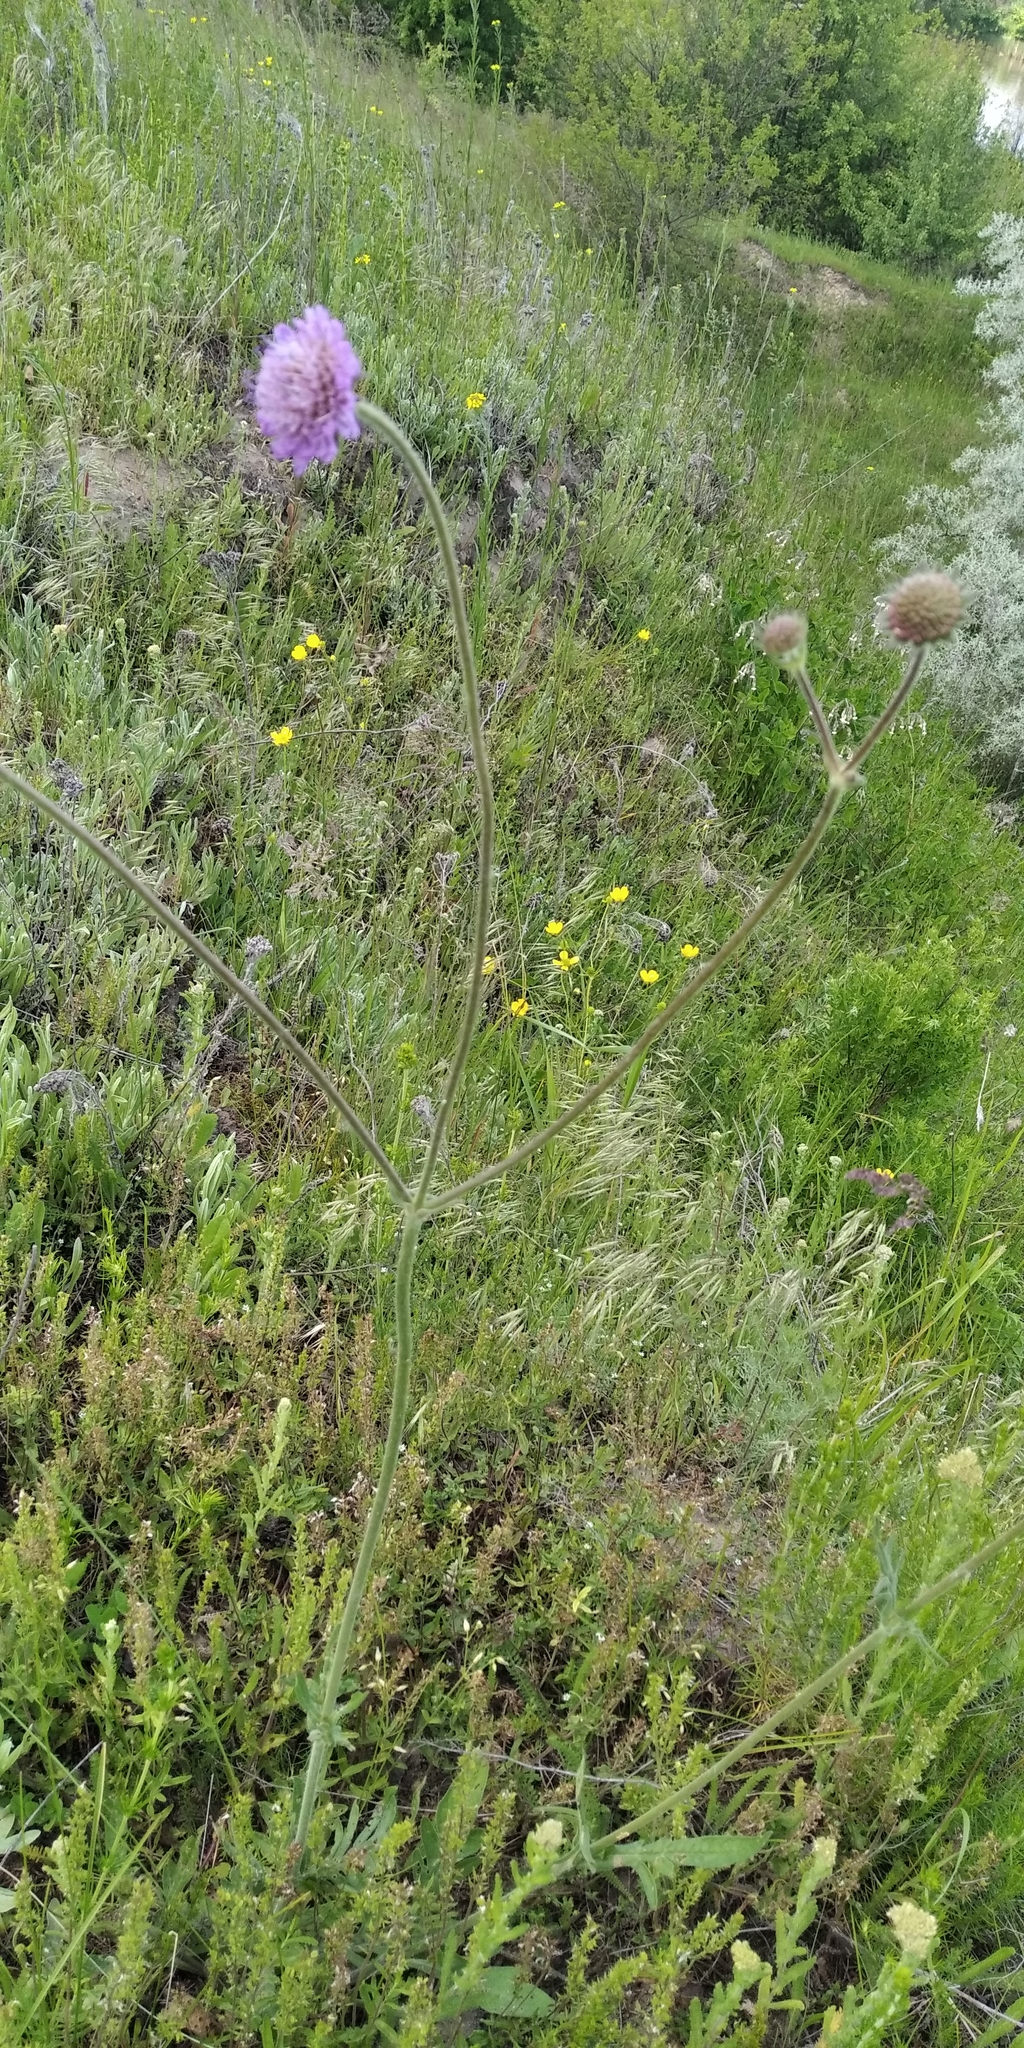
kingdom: Plantae
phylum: Tracheophyta
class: Magnoliopsida
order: Dipsacales
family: Caprifoliaceae
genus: Knautia
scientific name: Knautia arvensis
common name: Field scabiosa
